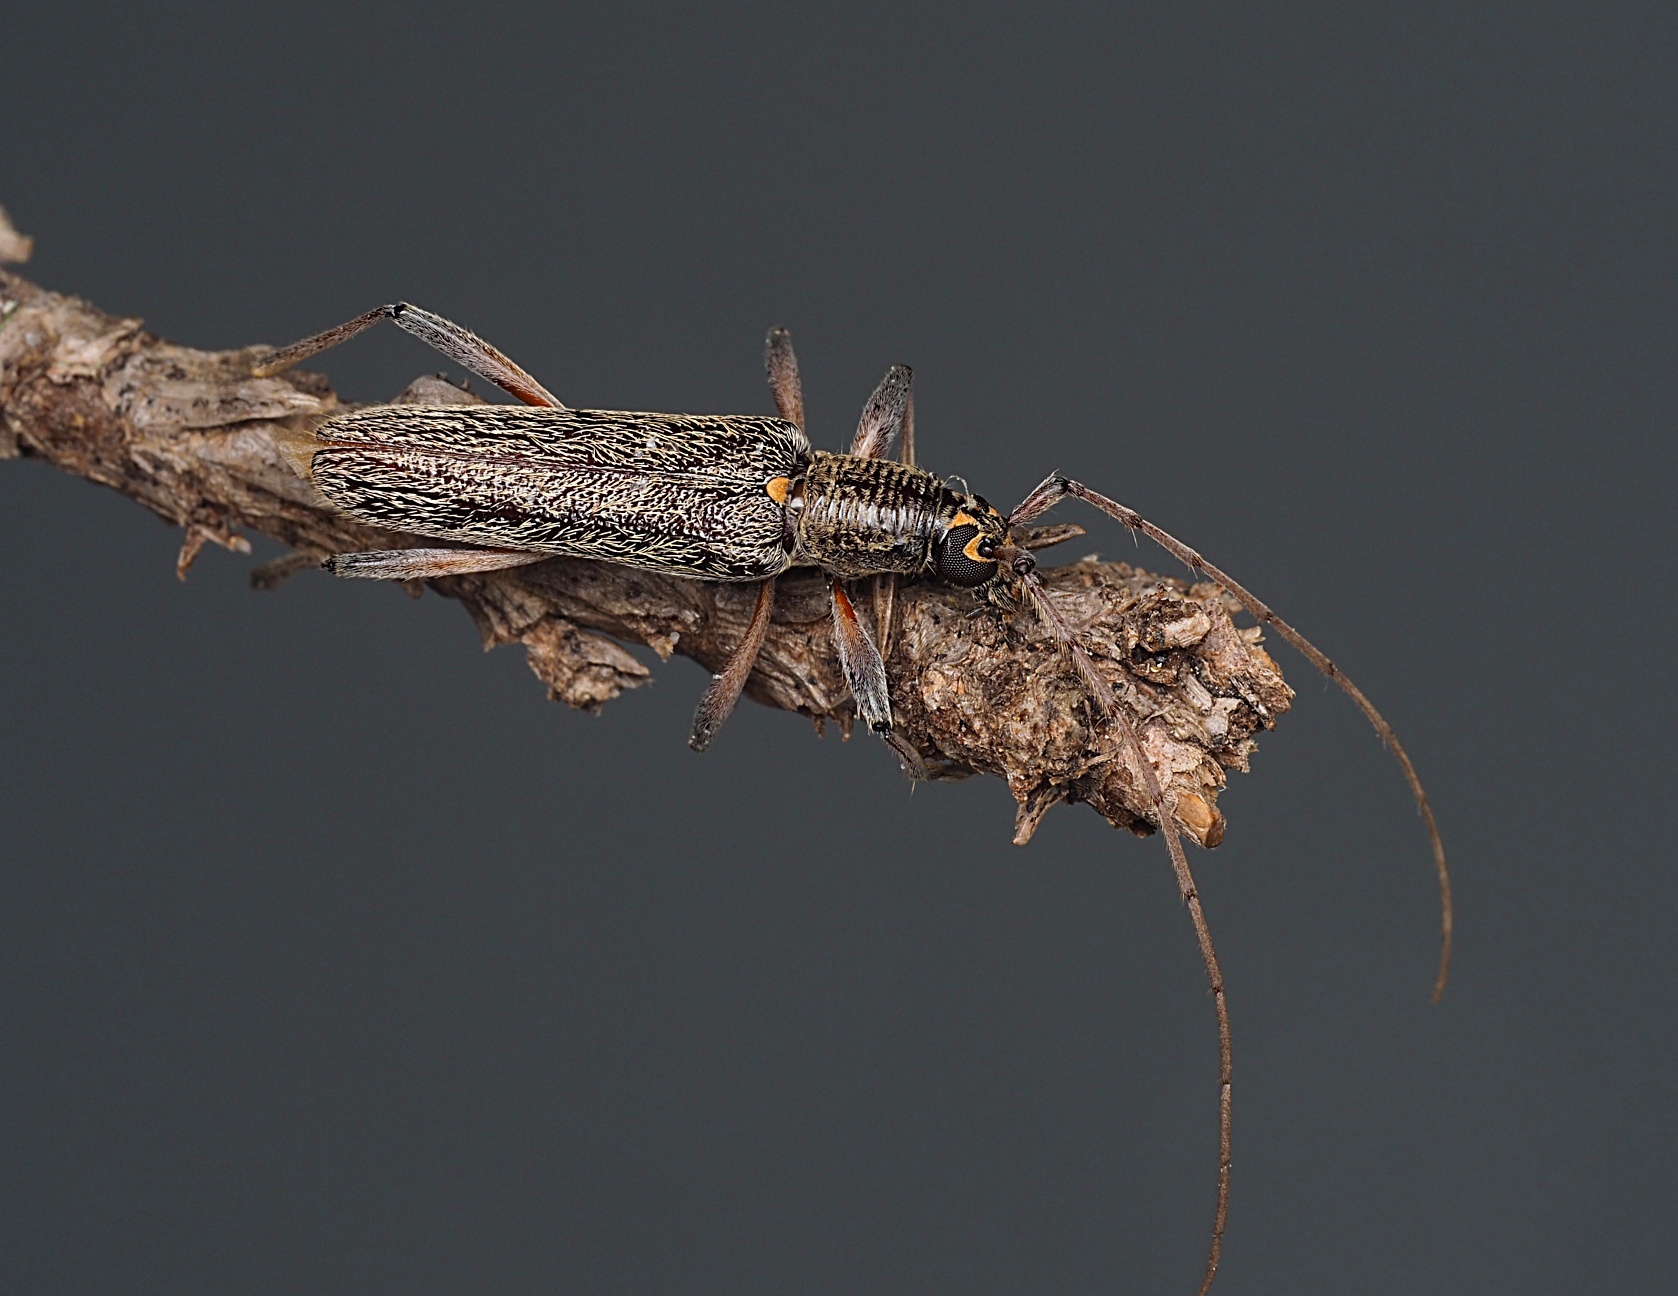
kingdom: Animalia
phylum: Arthropoda
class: Insecta
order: Coleoptera
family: Cerambycidae
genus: Oemona
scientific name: Oemona hirta
